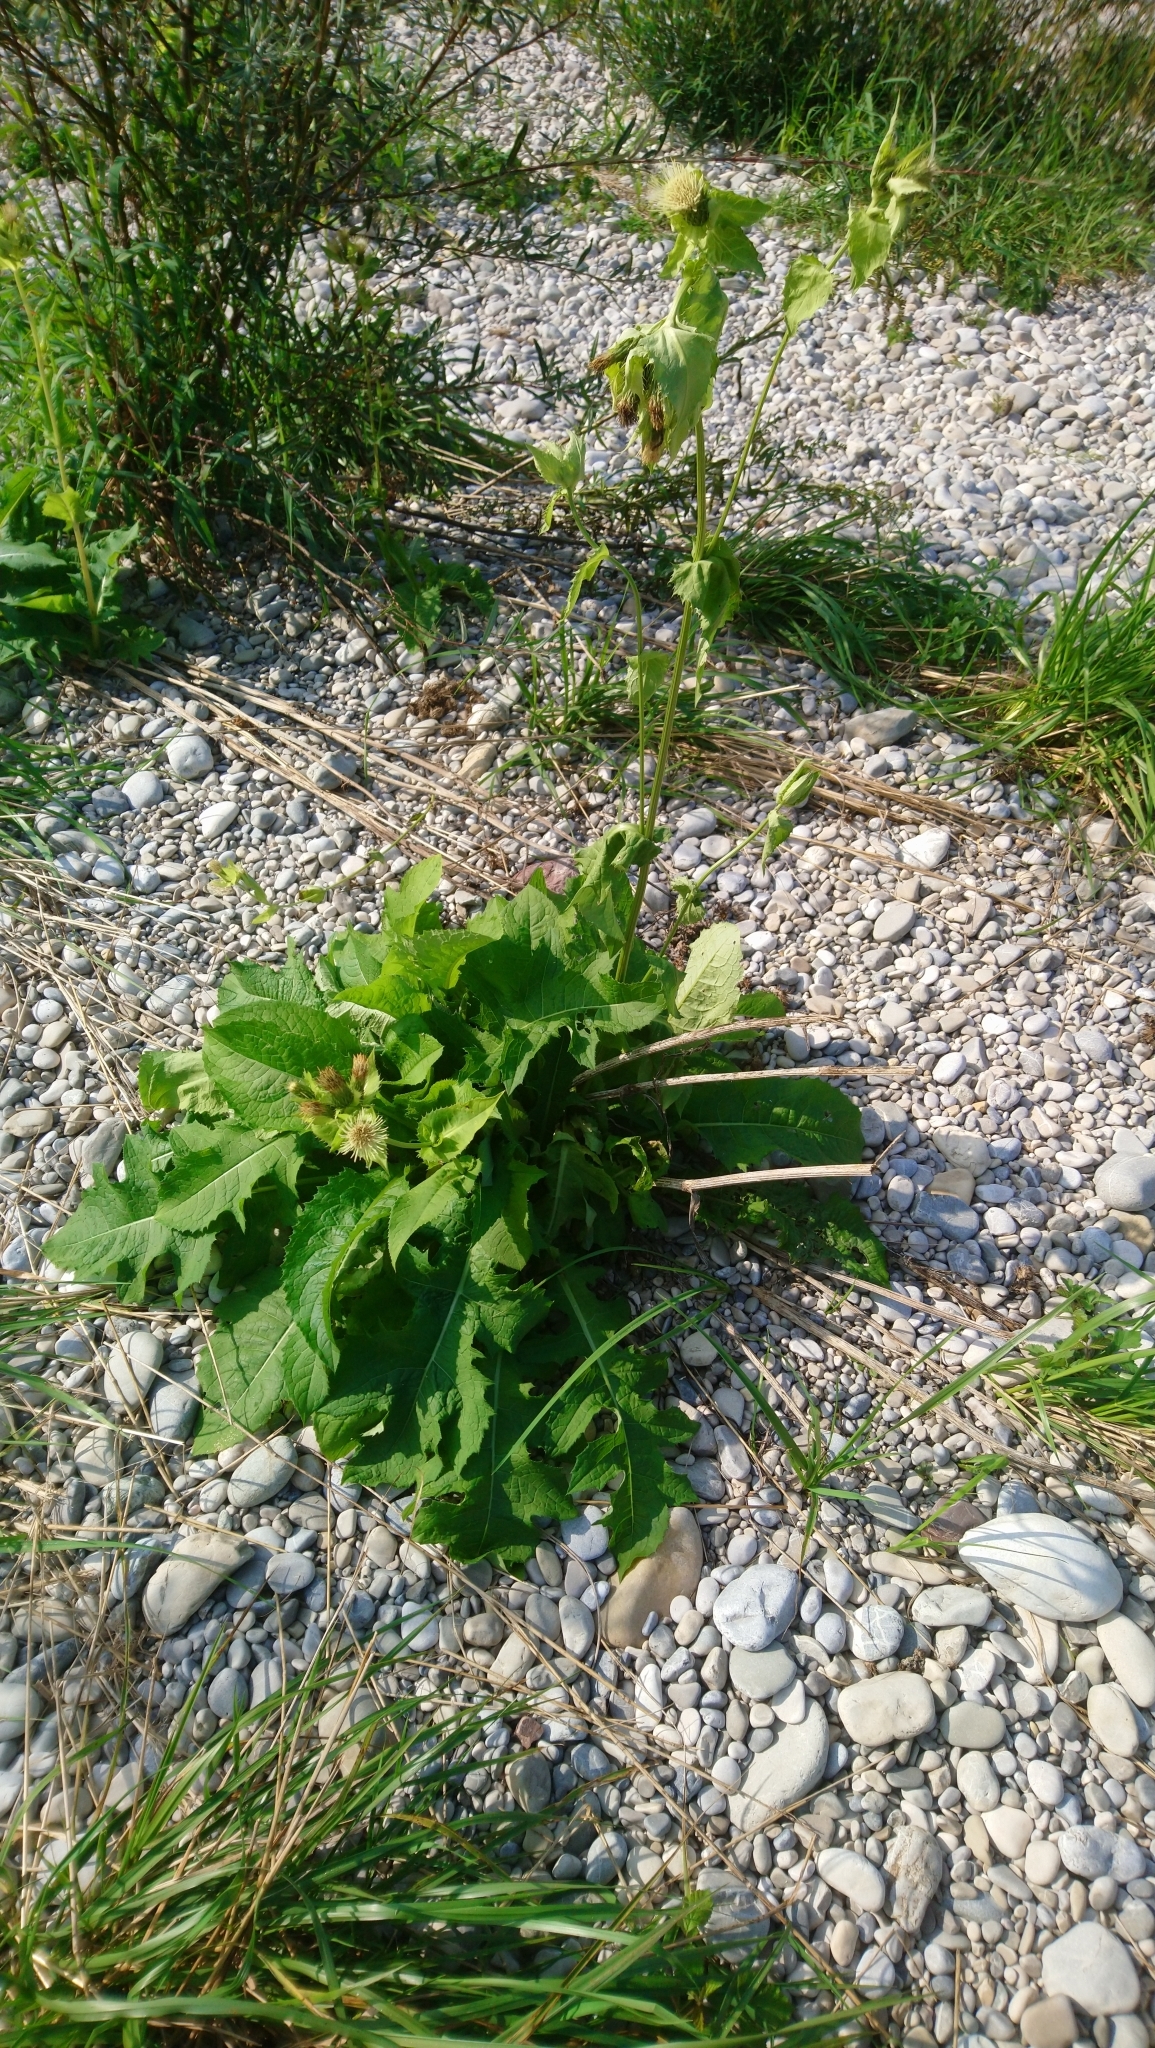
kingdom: Plantae
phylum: Tracheophyta
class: Magnoliopsida
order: Asterales
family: Asteraceae
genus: Cirsium
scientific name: Cirsium oleraceum
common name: Cabbage thistle
